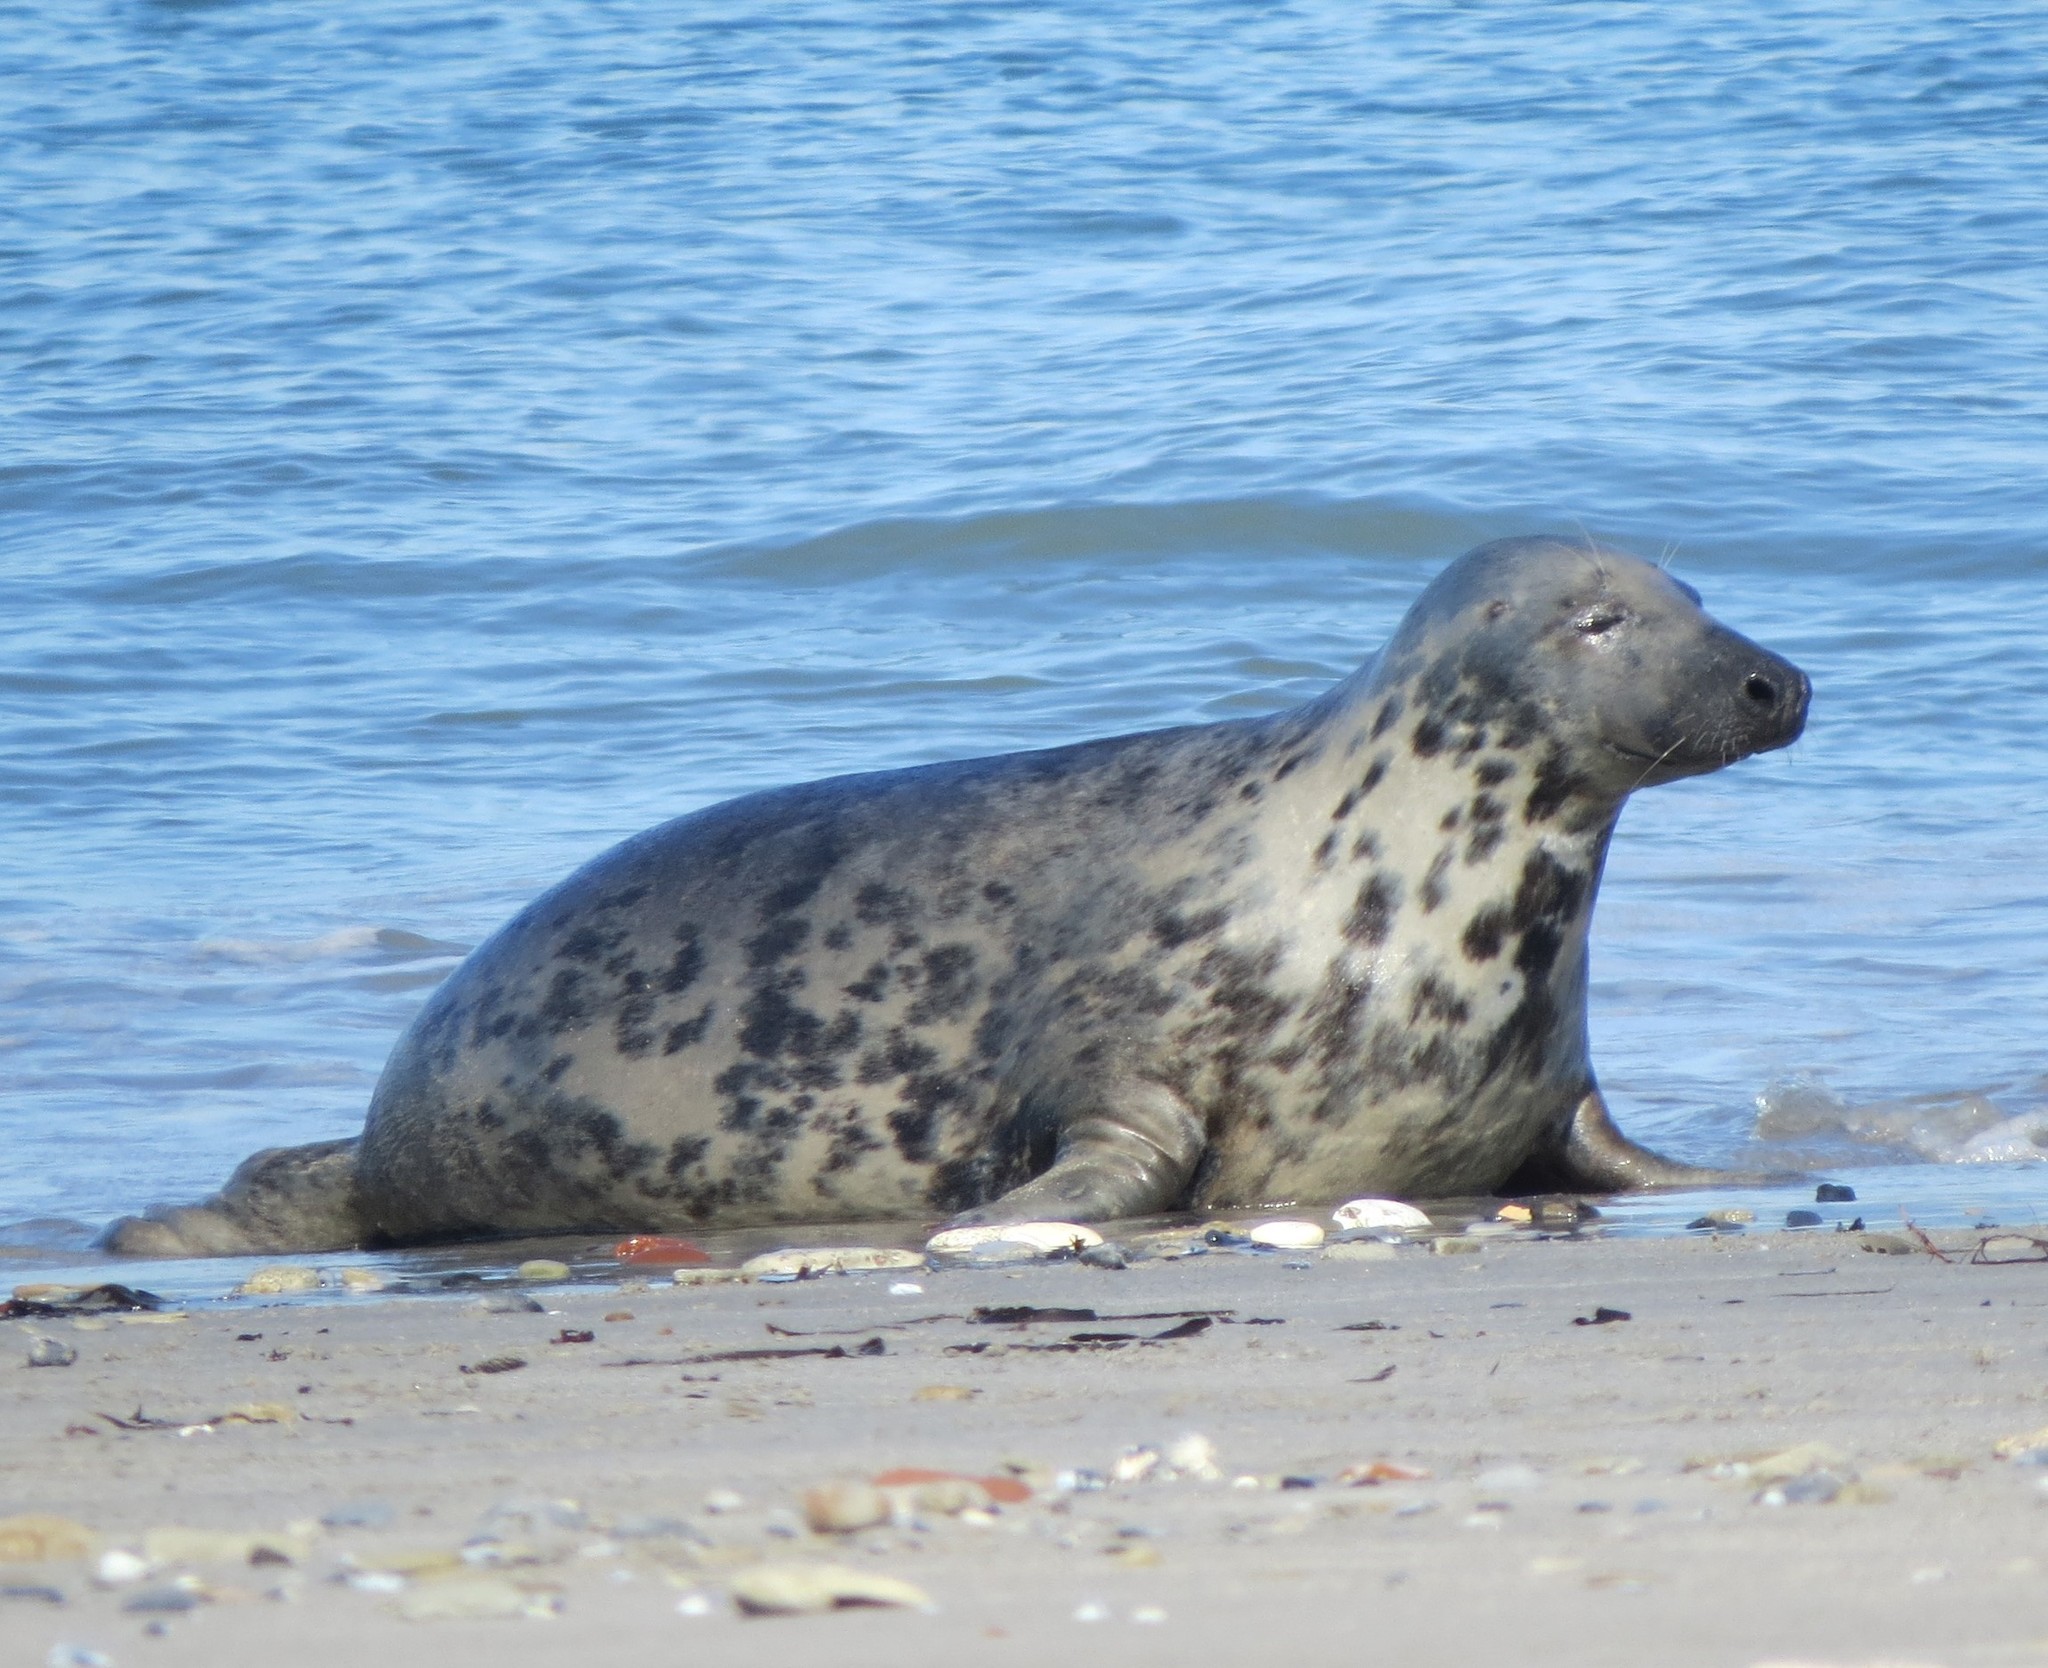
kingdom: Animalia
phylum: Chordata
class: Mammalia
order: Carnivora
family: Phocidae
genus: Halichoerus
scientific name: Halichoerus grypus
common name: Grey seal
